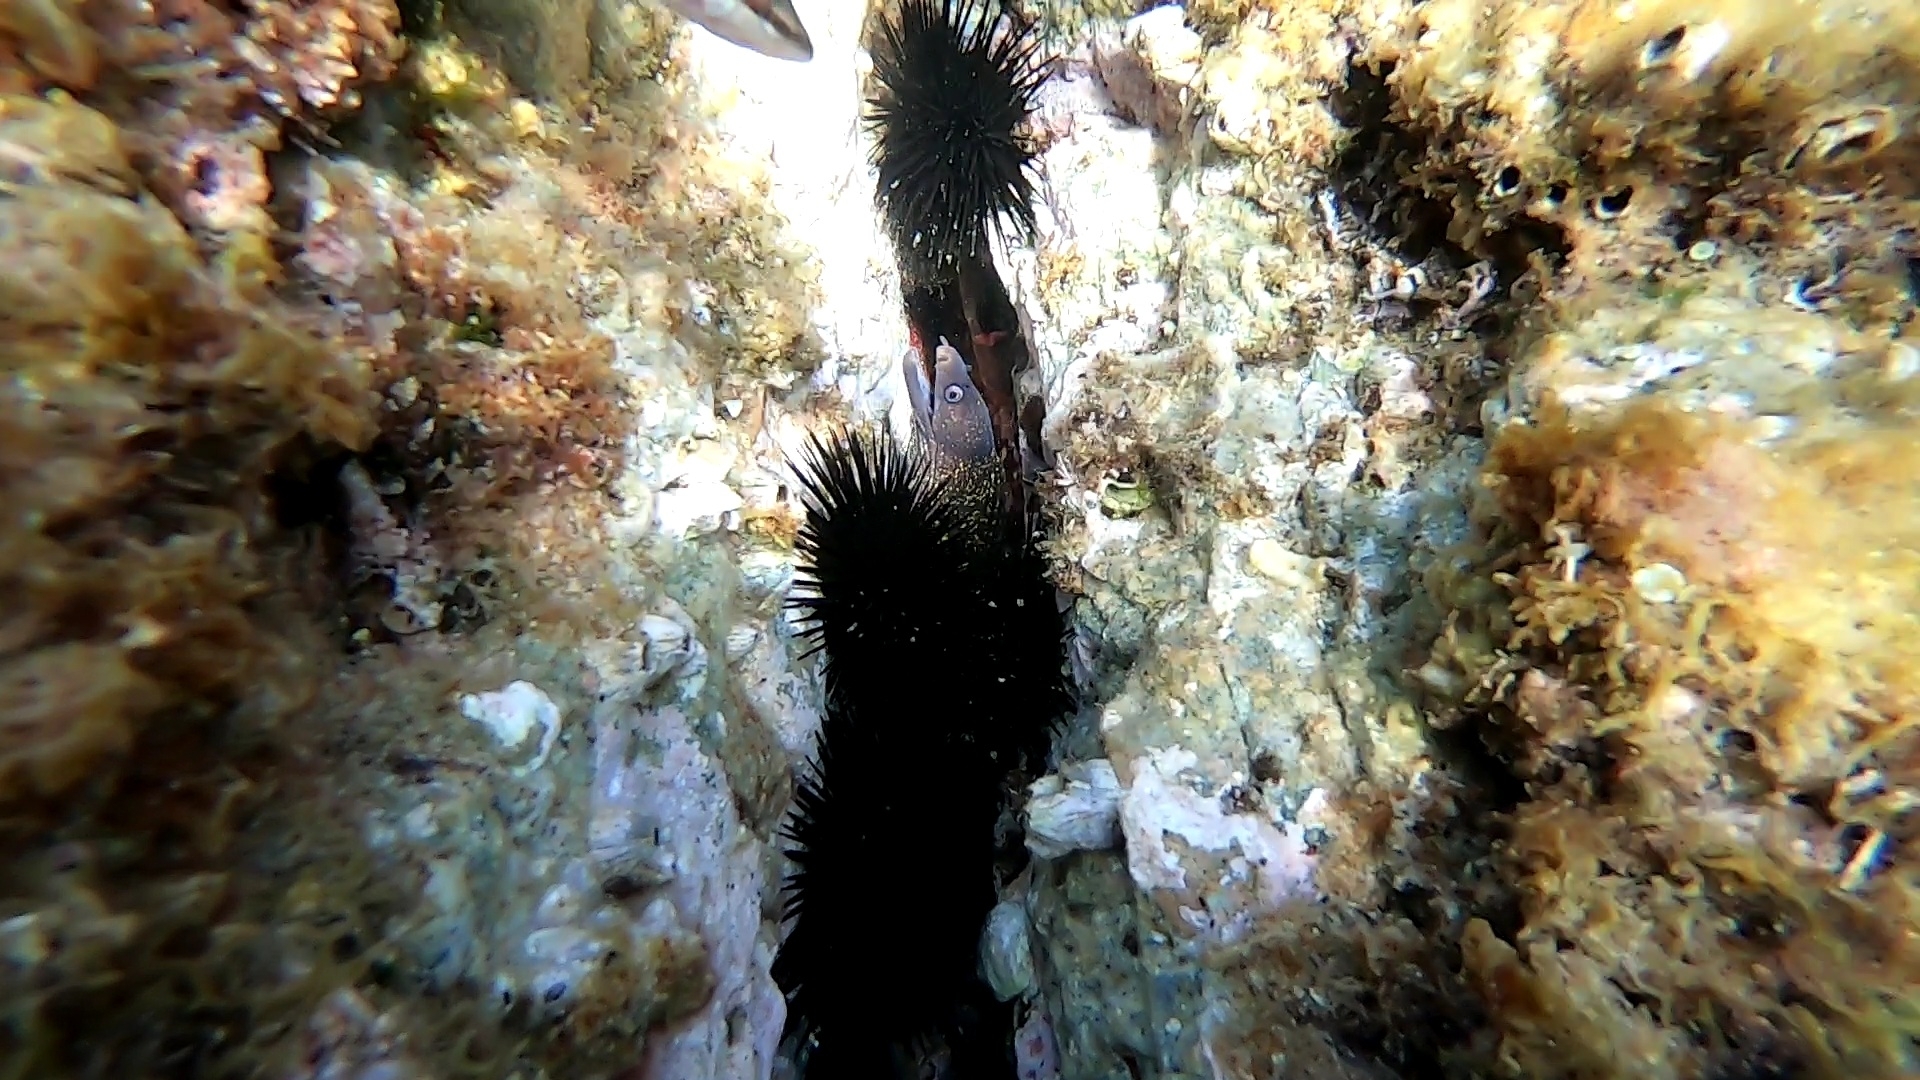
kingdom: Animalia
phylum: Chordata
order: Anguilliformes
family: Muraenidae
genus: Muraena
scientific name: Muraena helena
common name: Mediterranean moray
